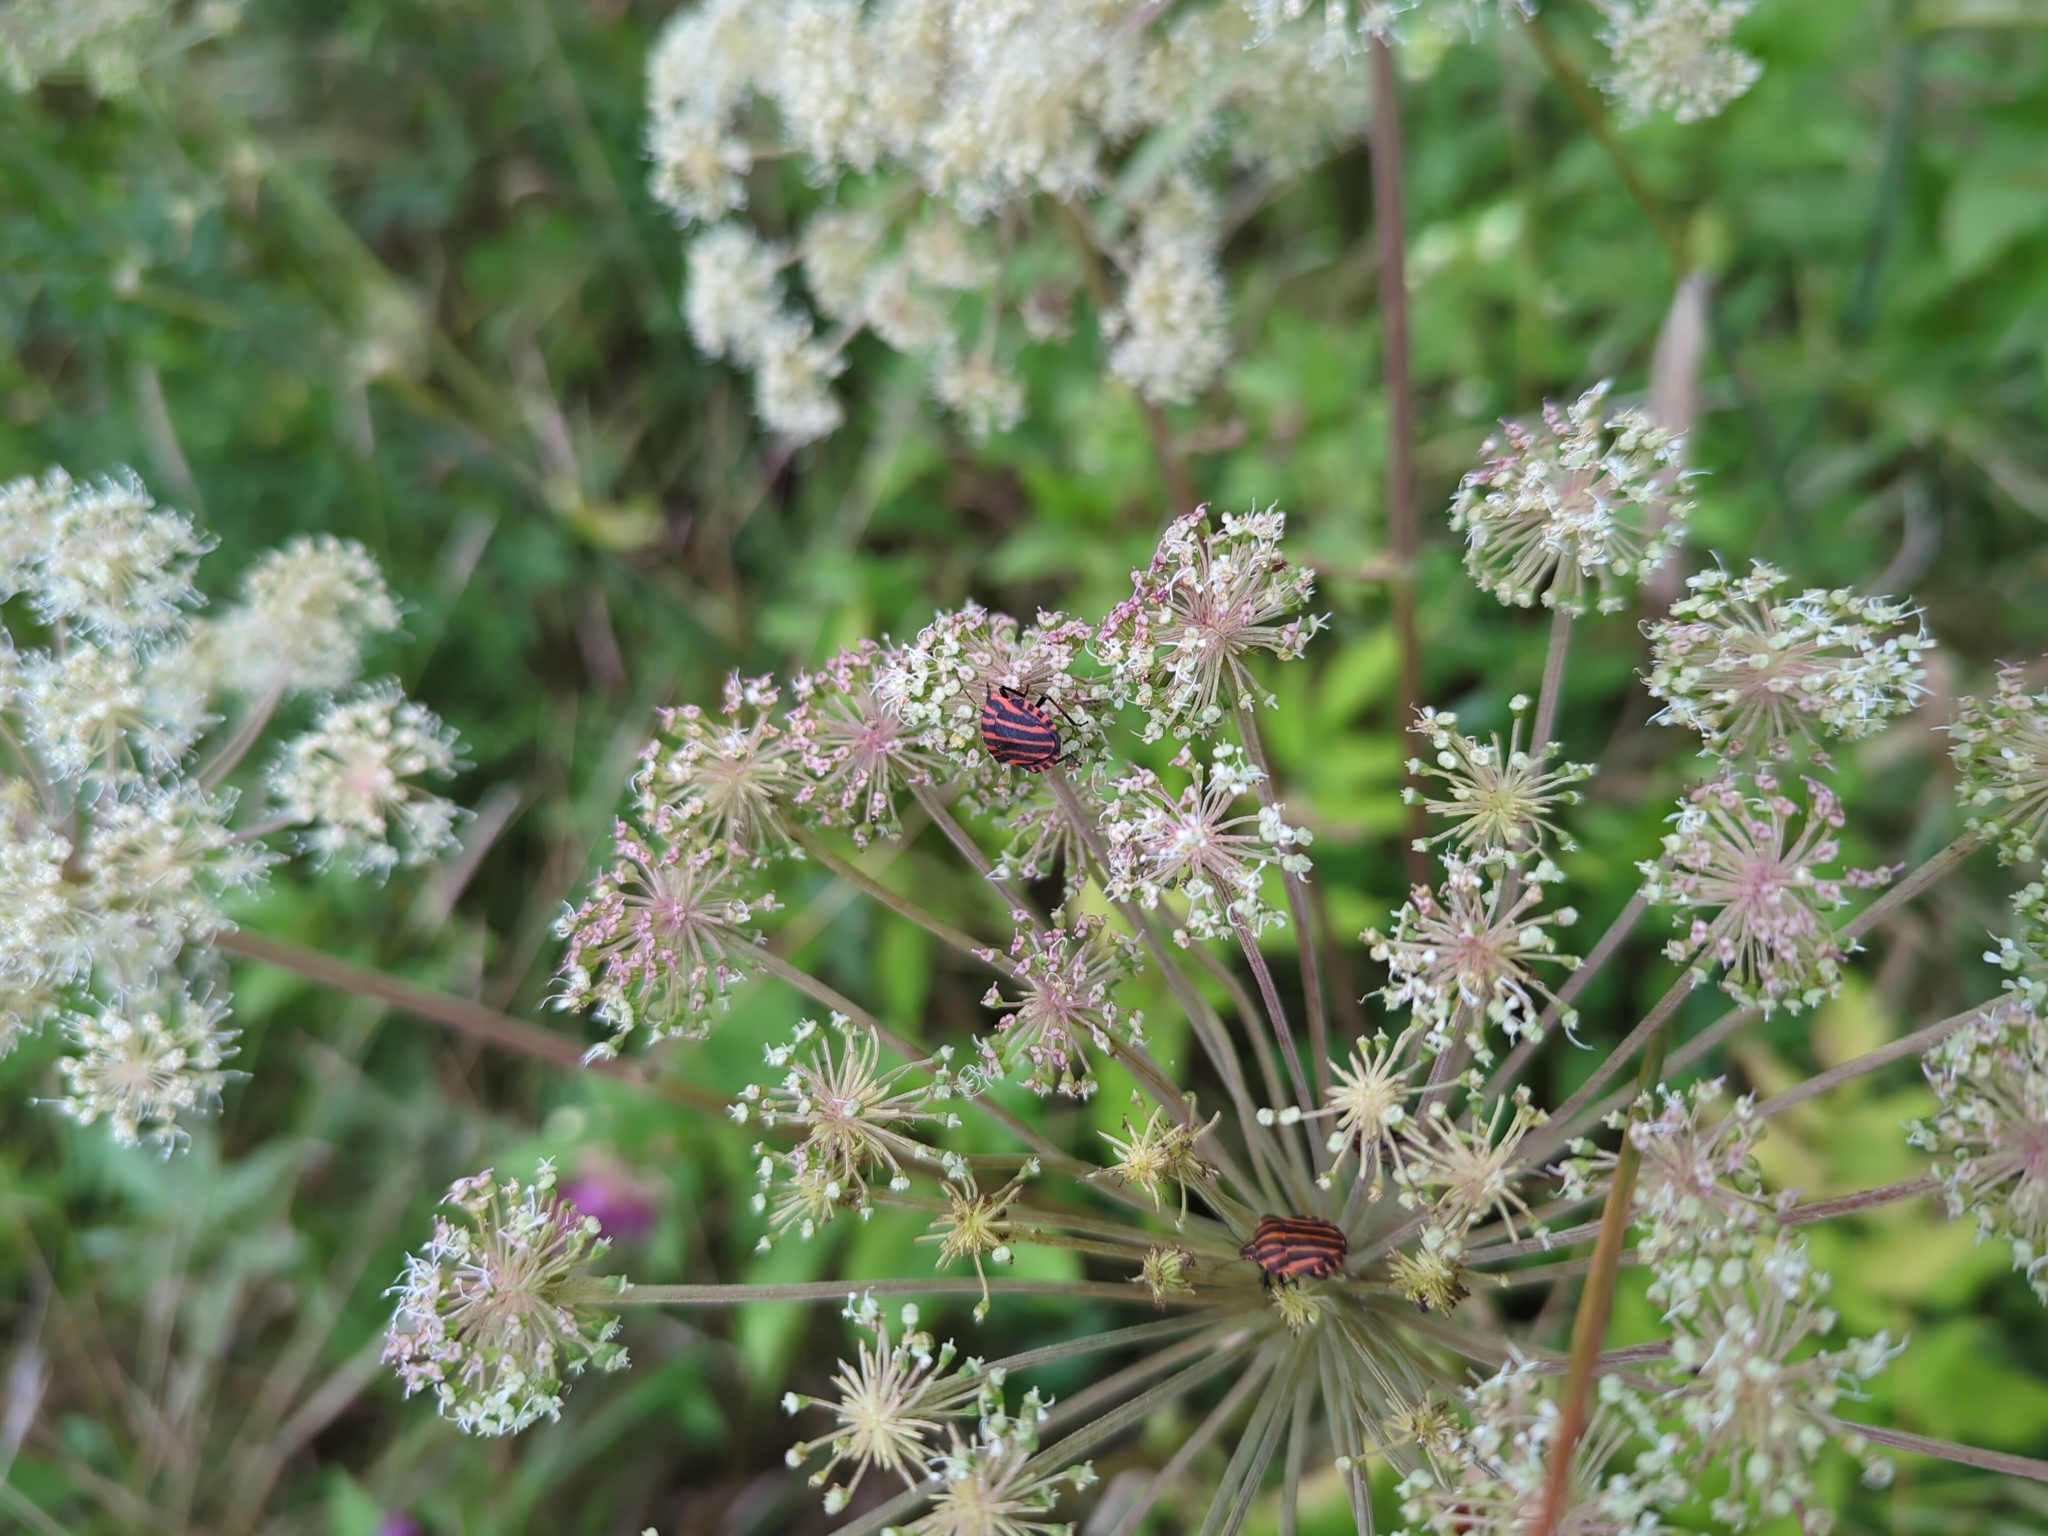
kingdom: Animalia
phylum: Arthropoda
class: Insecta
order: Hemiptera
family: Pentatomidae
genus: Graphosoma
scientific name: Graphosoma italicum
